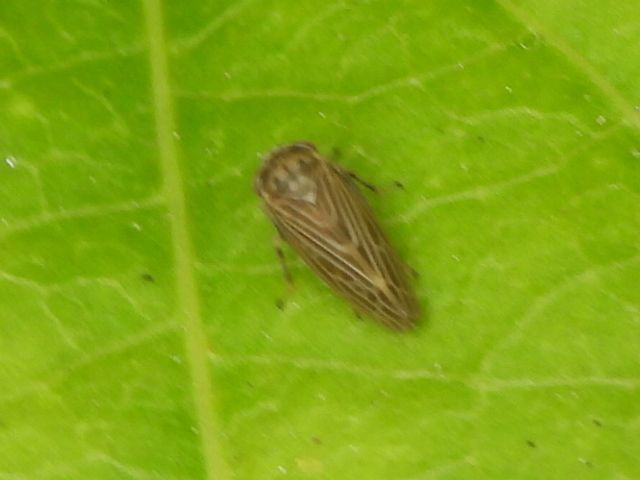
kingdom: Animalia
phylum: Arthropoda
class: Insecta
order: Hemiptera
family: Cicadellidae
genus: Agalliota
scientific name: Agalliota quadripunctata
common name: The four-spotted clover leafhopper
